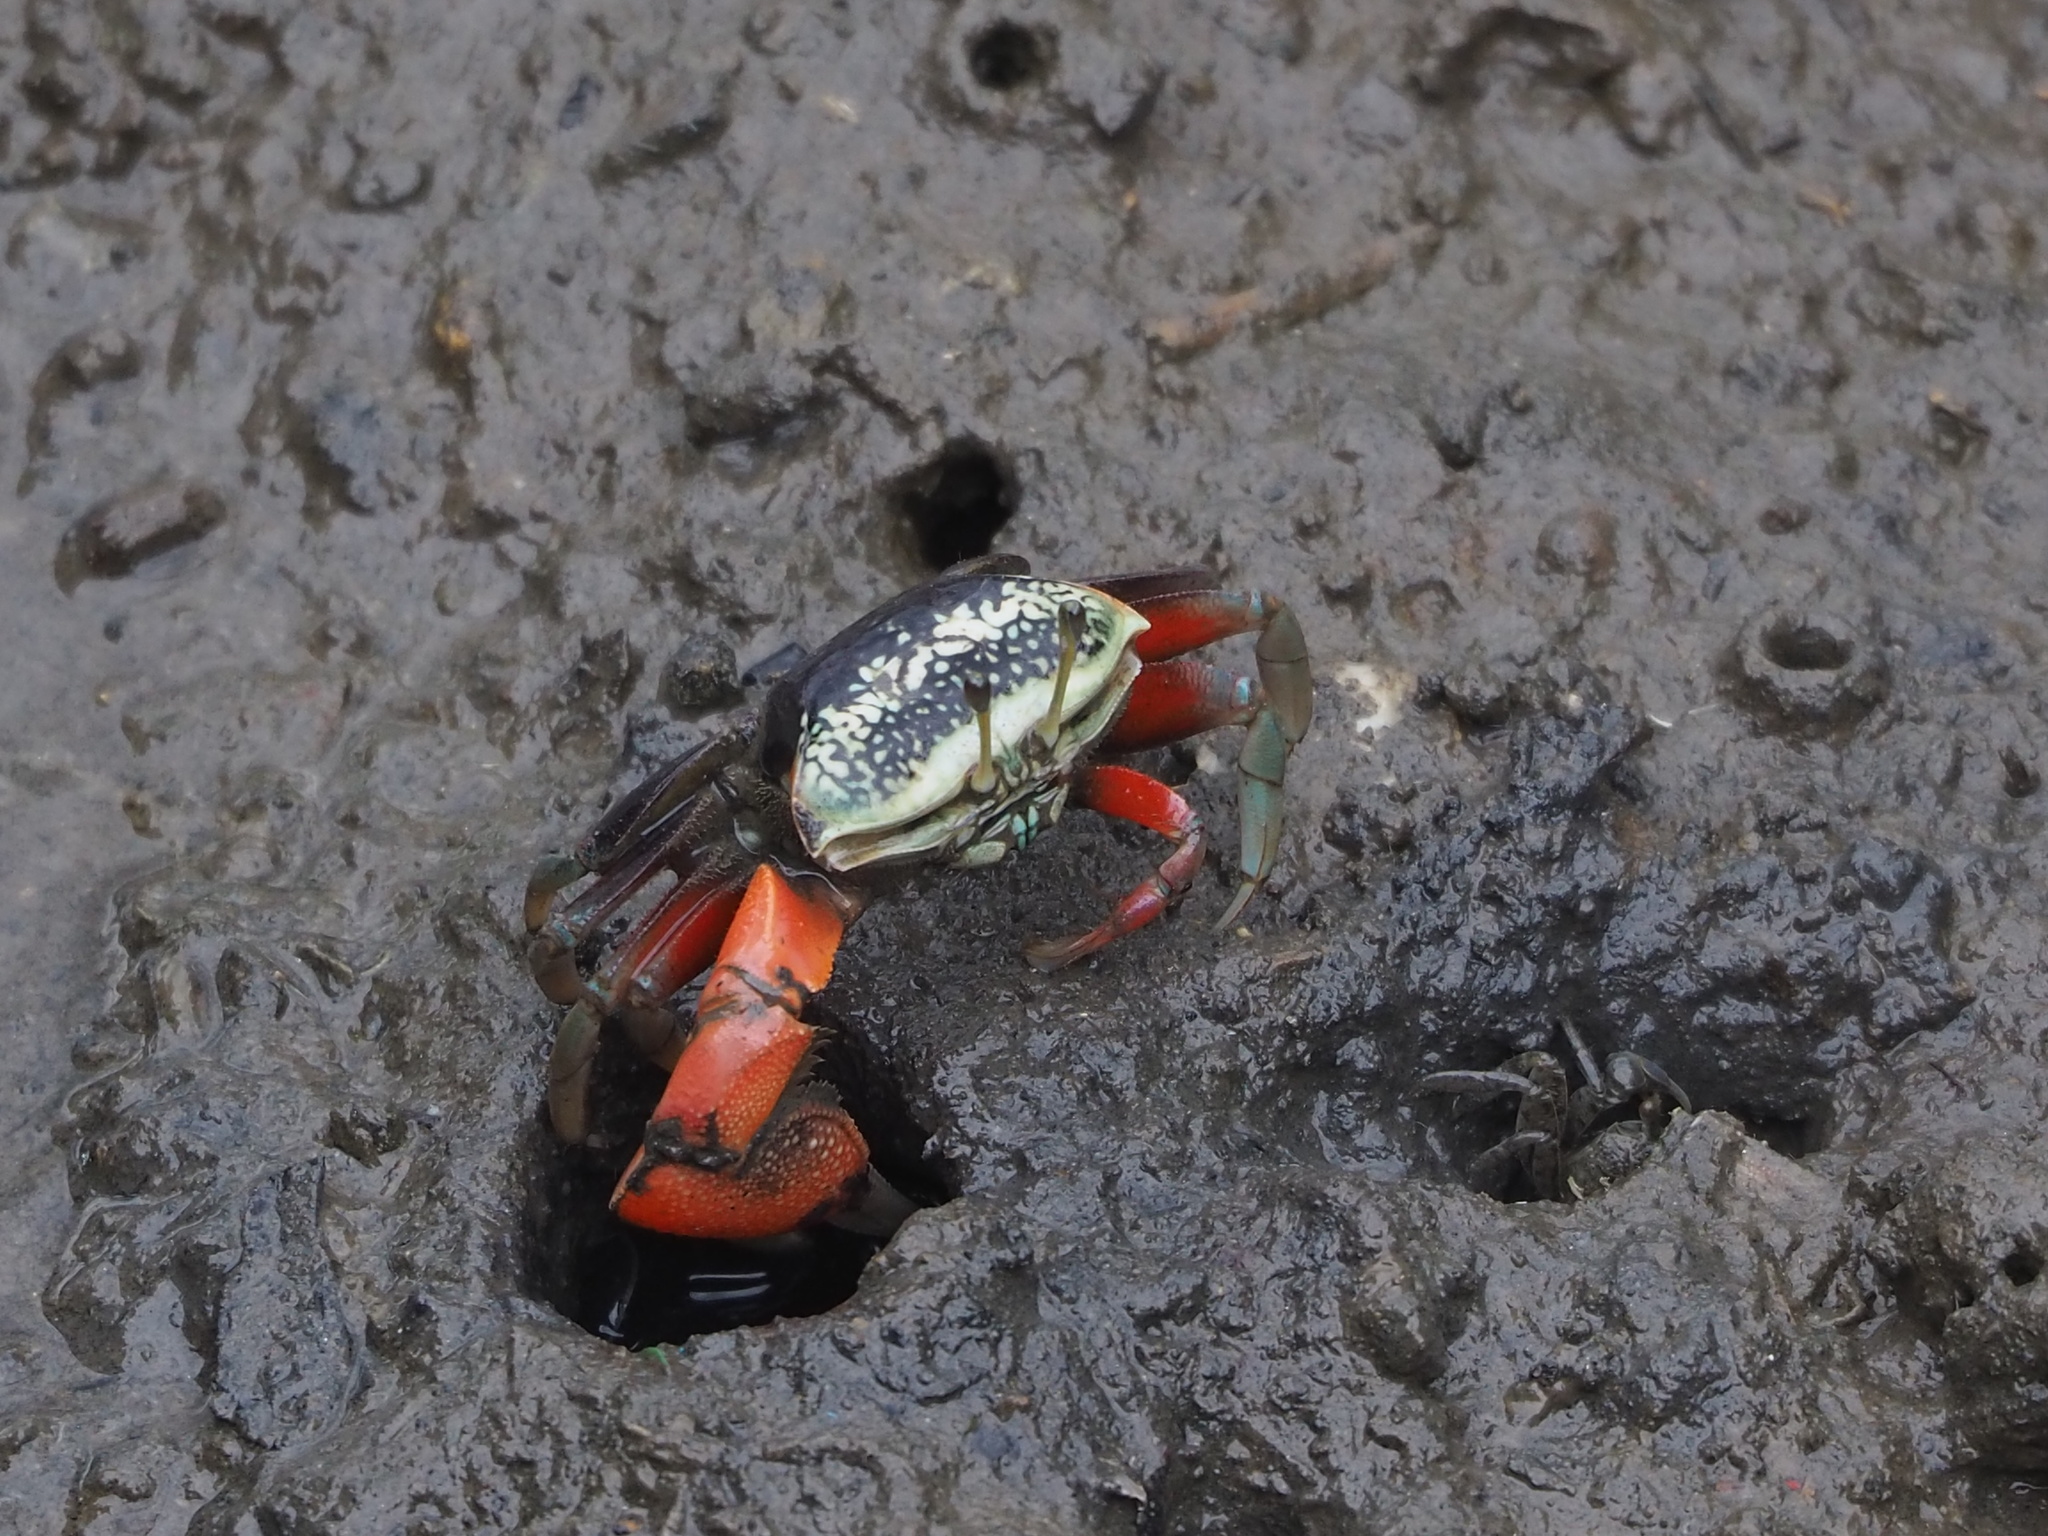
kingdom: Animalia
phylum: Arthropoda
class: Malacostraca
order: Decapoda
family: Ocypodidae
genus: Tubuca
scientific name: Tubuca arcuata
